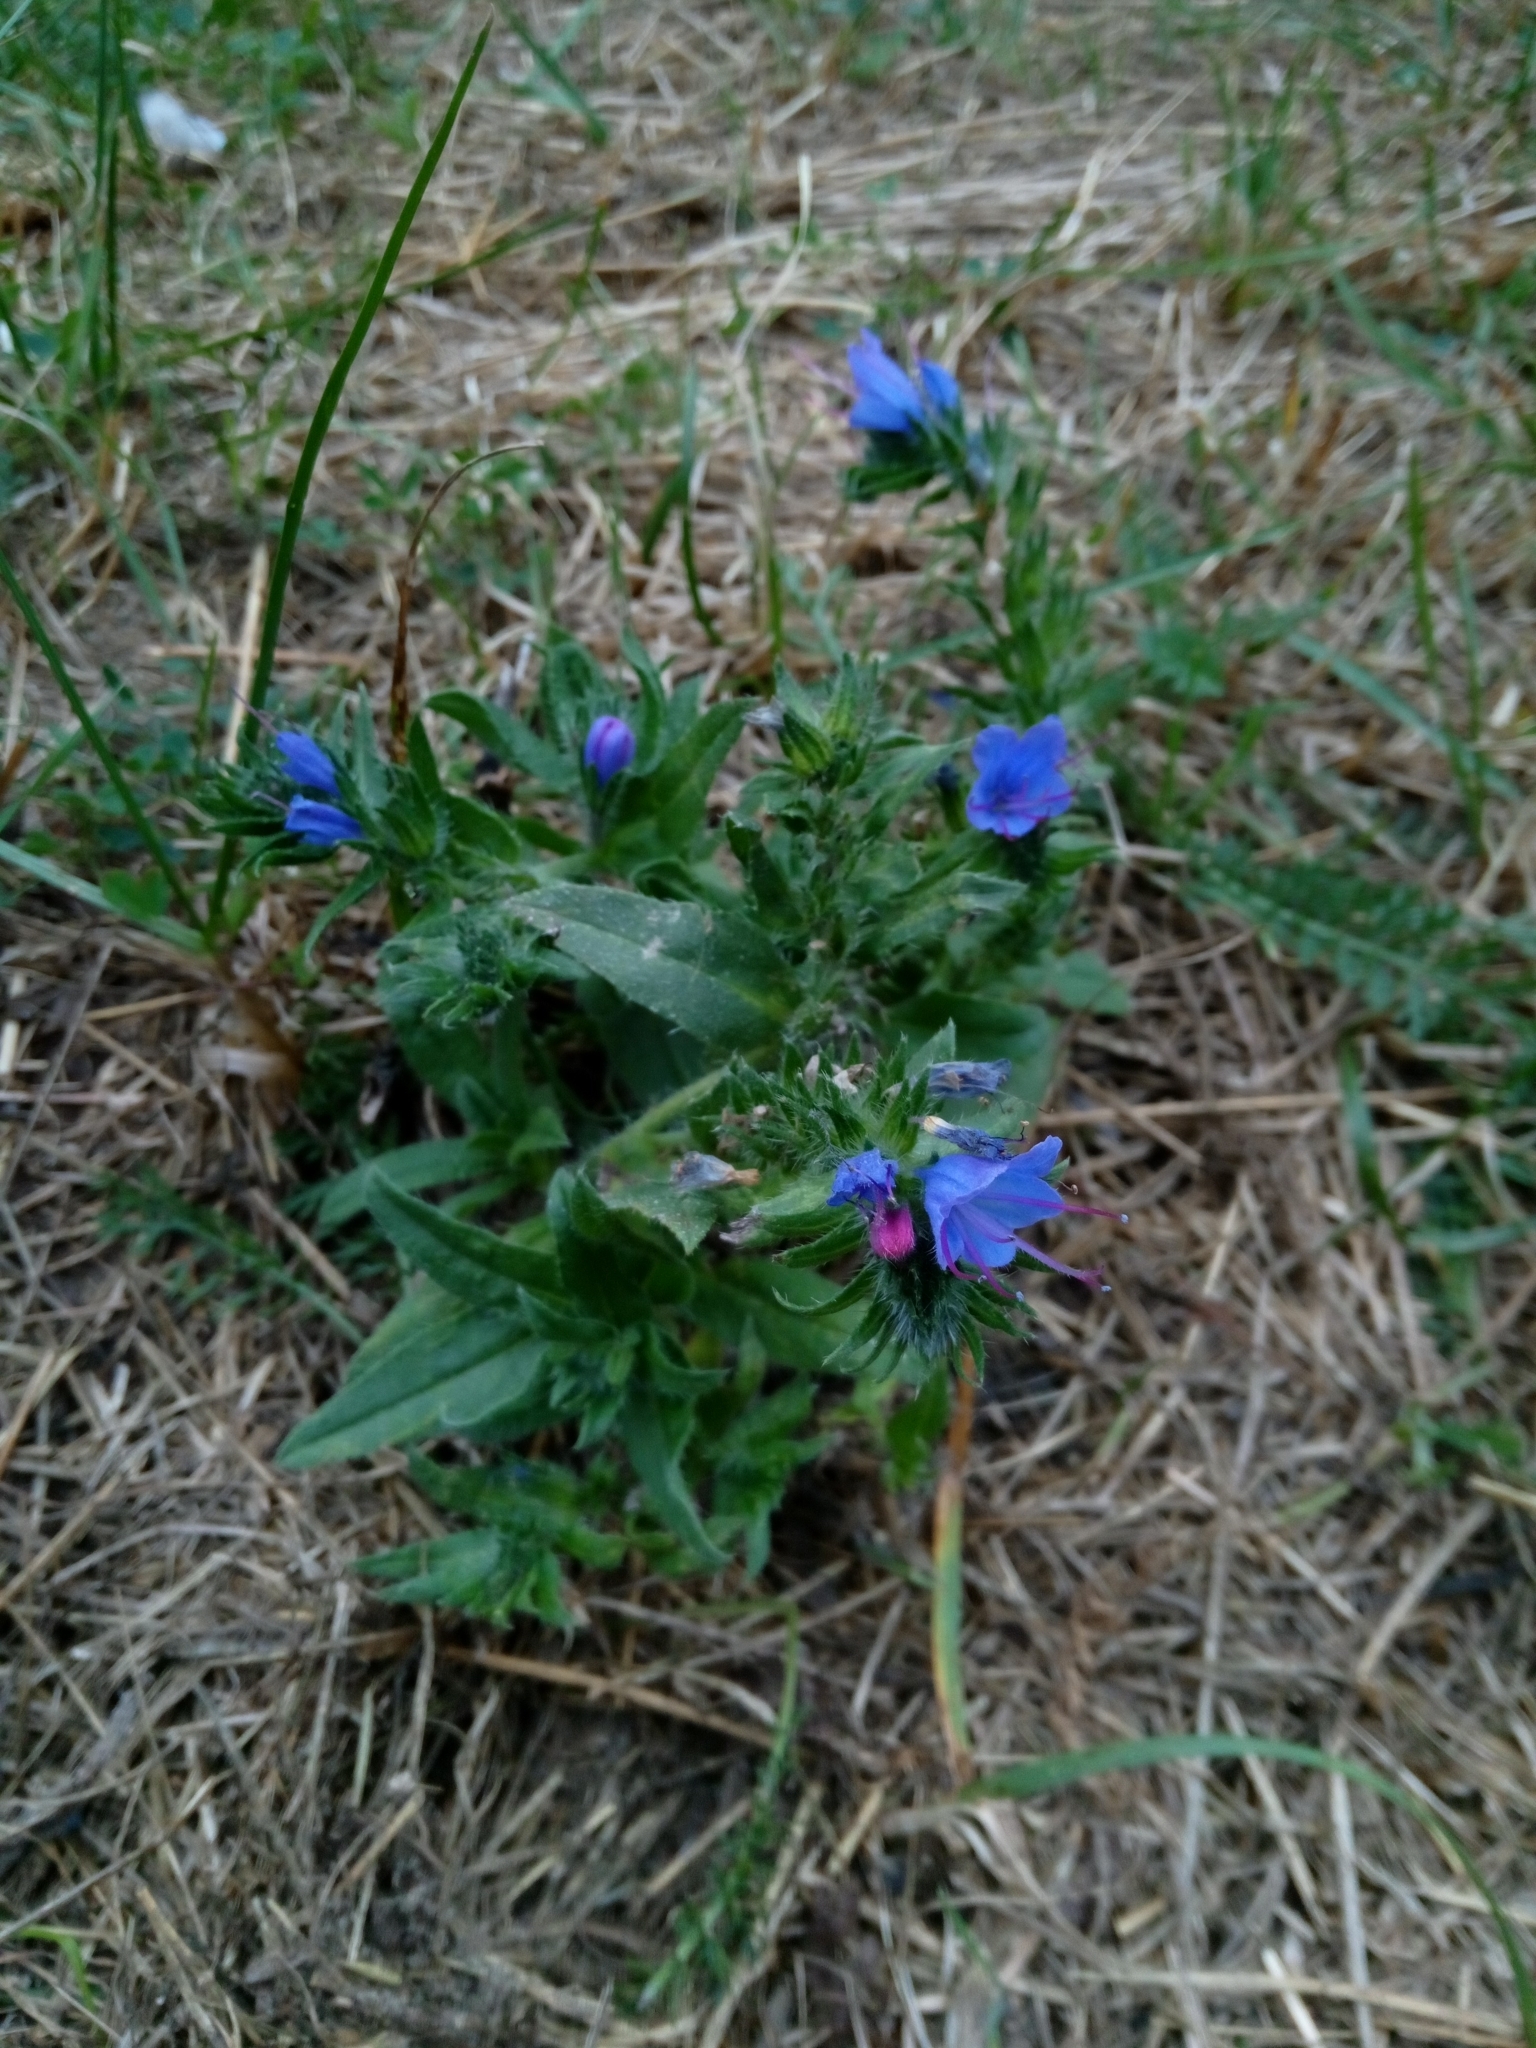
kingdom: Plantae
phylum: Tracheophyta
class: Magnoliopsida
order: Boraginales
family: Boraginaceae
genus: Echium
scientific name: Echium vulgare
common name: Common viper's bugloss
